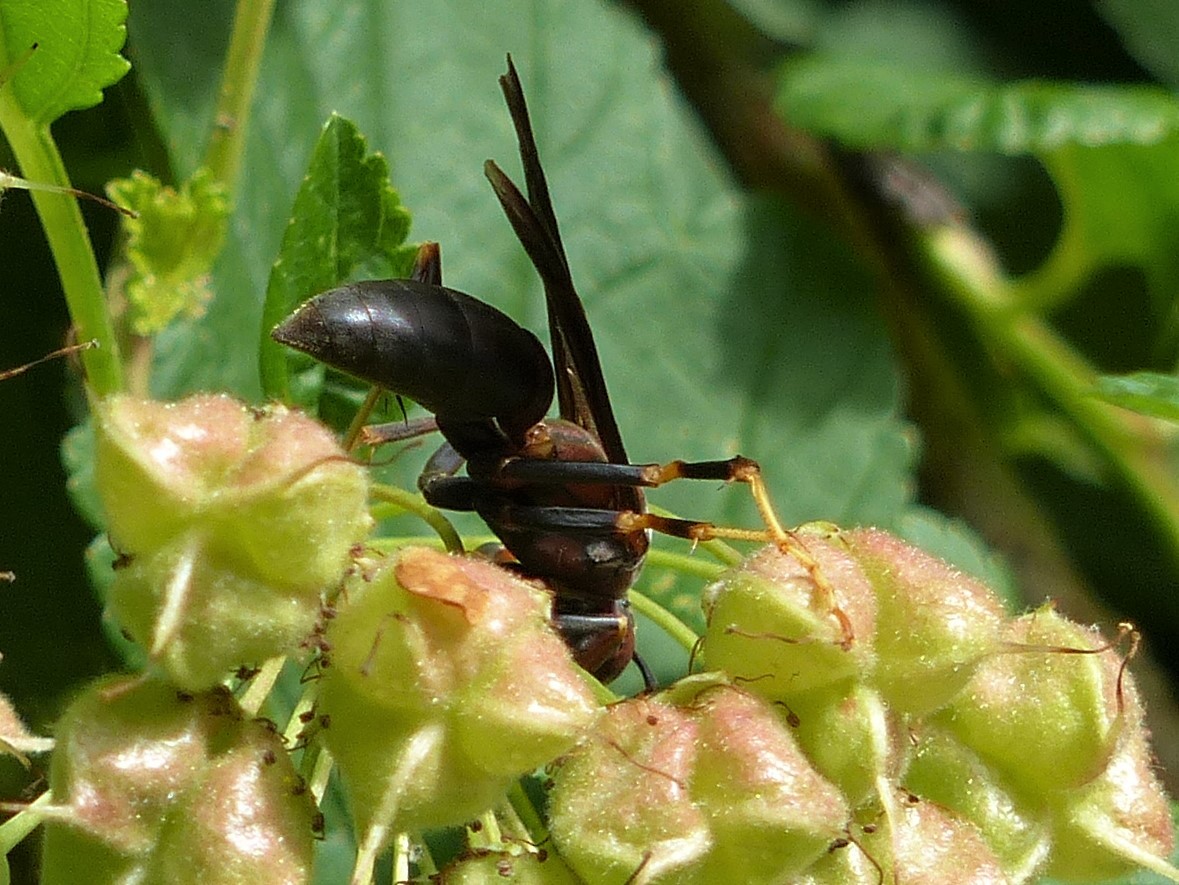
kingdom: Animalia
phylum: Arthropoda
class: Insecta
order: Hymenoptera
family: Eumenidae
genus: Polistes
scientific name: Polistes metricus
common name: Metric paper wasp
